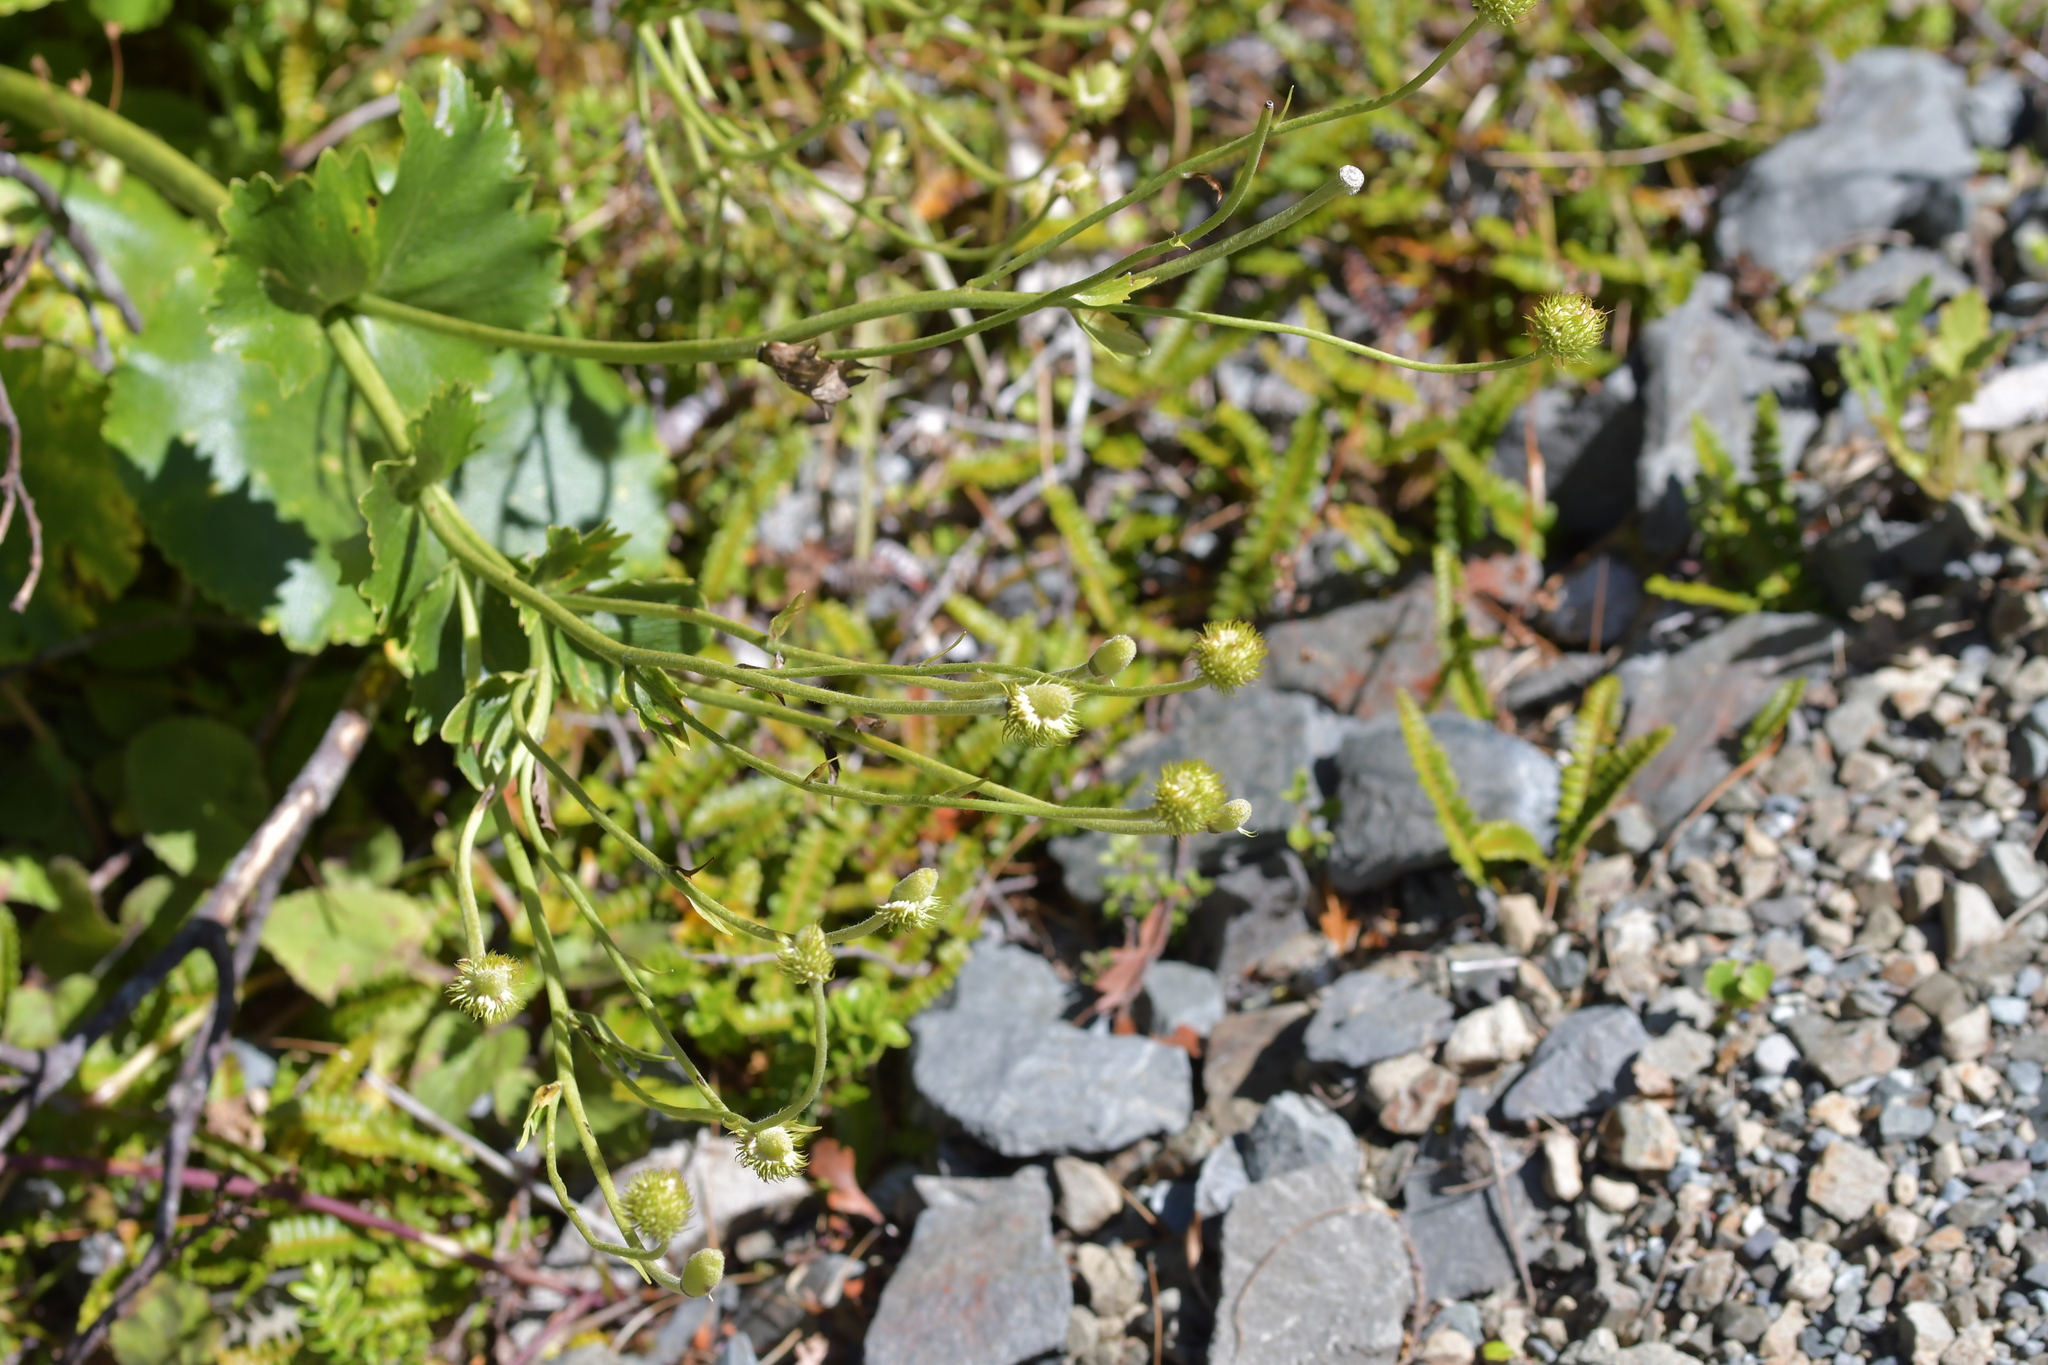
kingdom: Plantae
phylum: Tracheophyta
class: Magnoliopsida
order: Ranunculales
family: Ranunculaceae
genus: Ranunculus
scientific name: Ranunculus lyallii
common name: Mountain-lily
